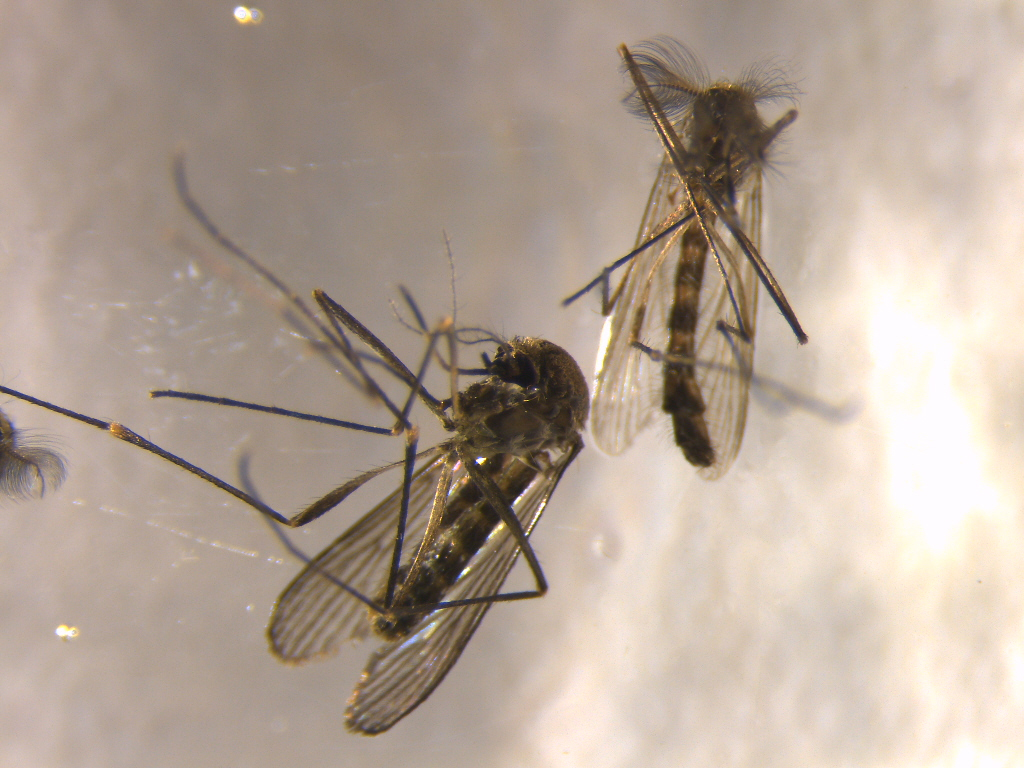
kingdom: Animalia
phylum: Arthropoda
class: Insecta
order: Diptera
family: Culicidae
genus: Culex
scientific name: Culex pervigilans
